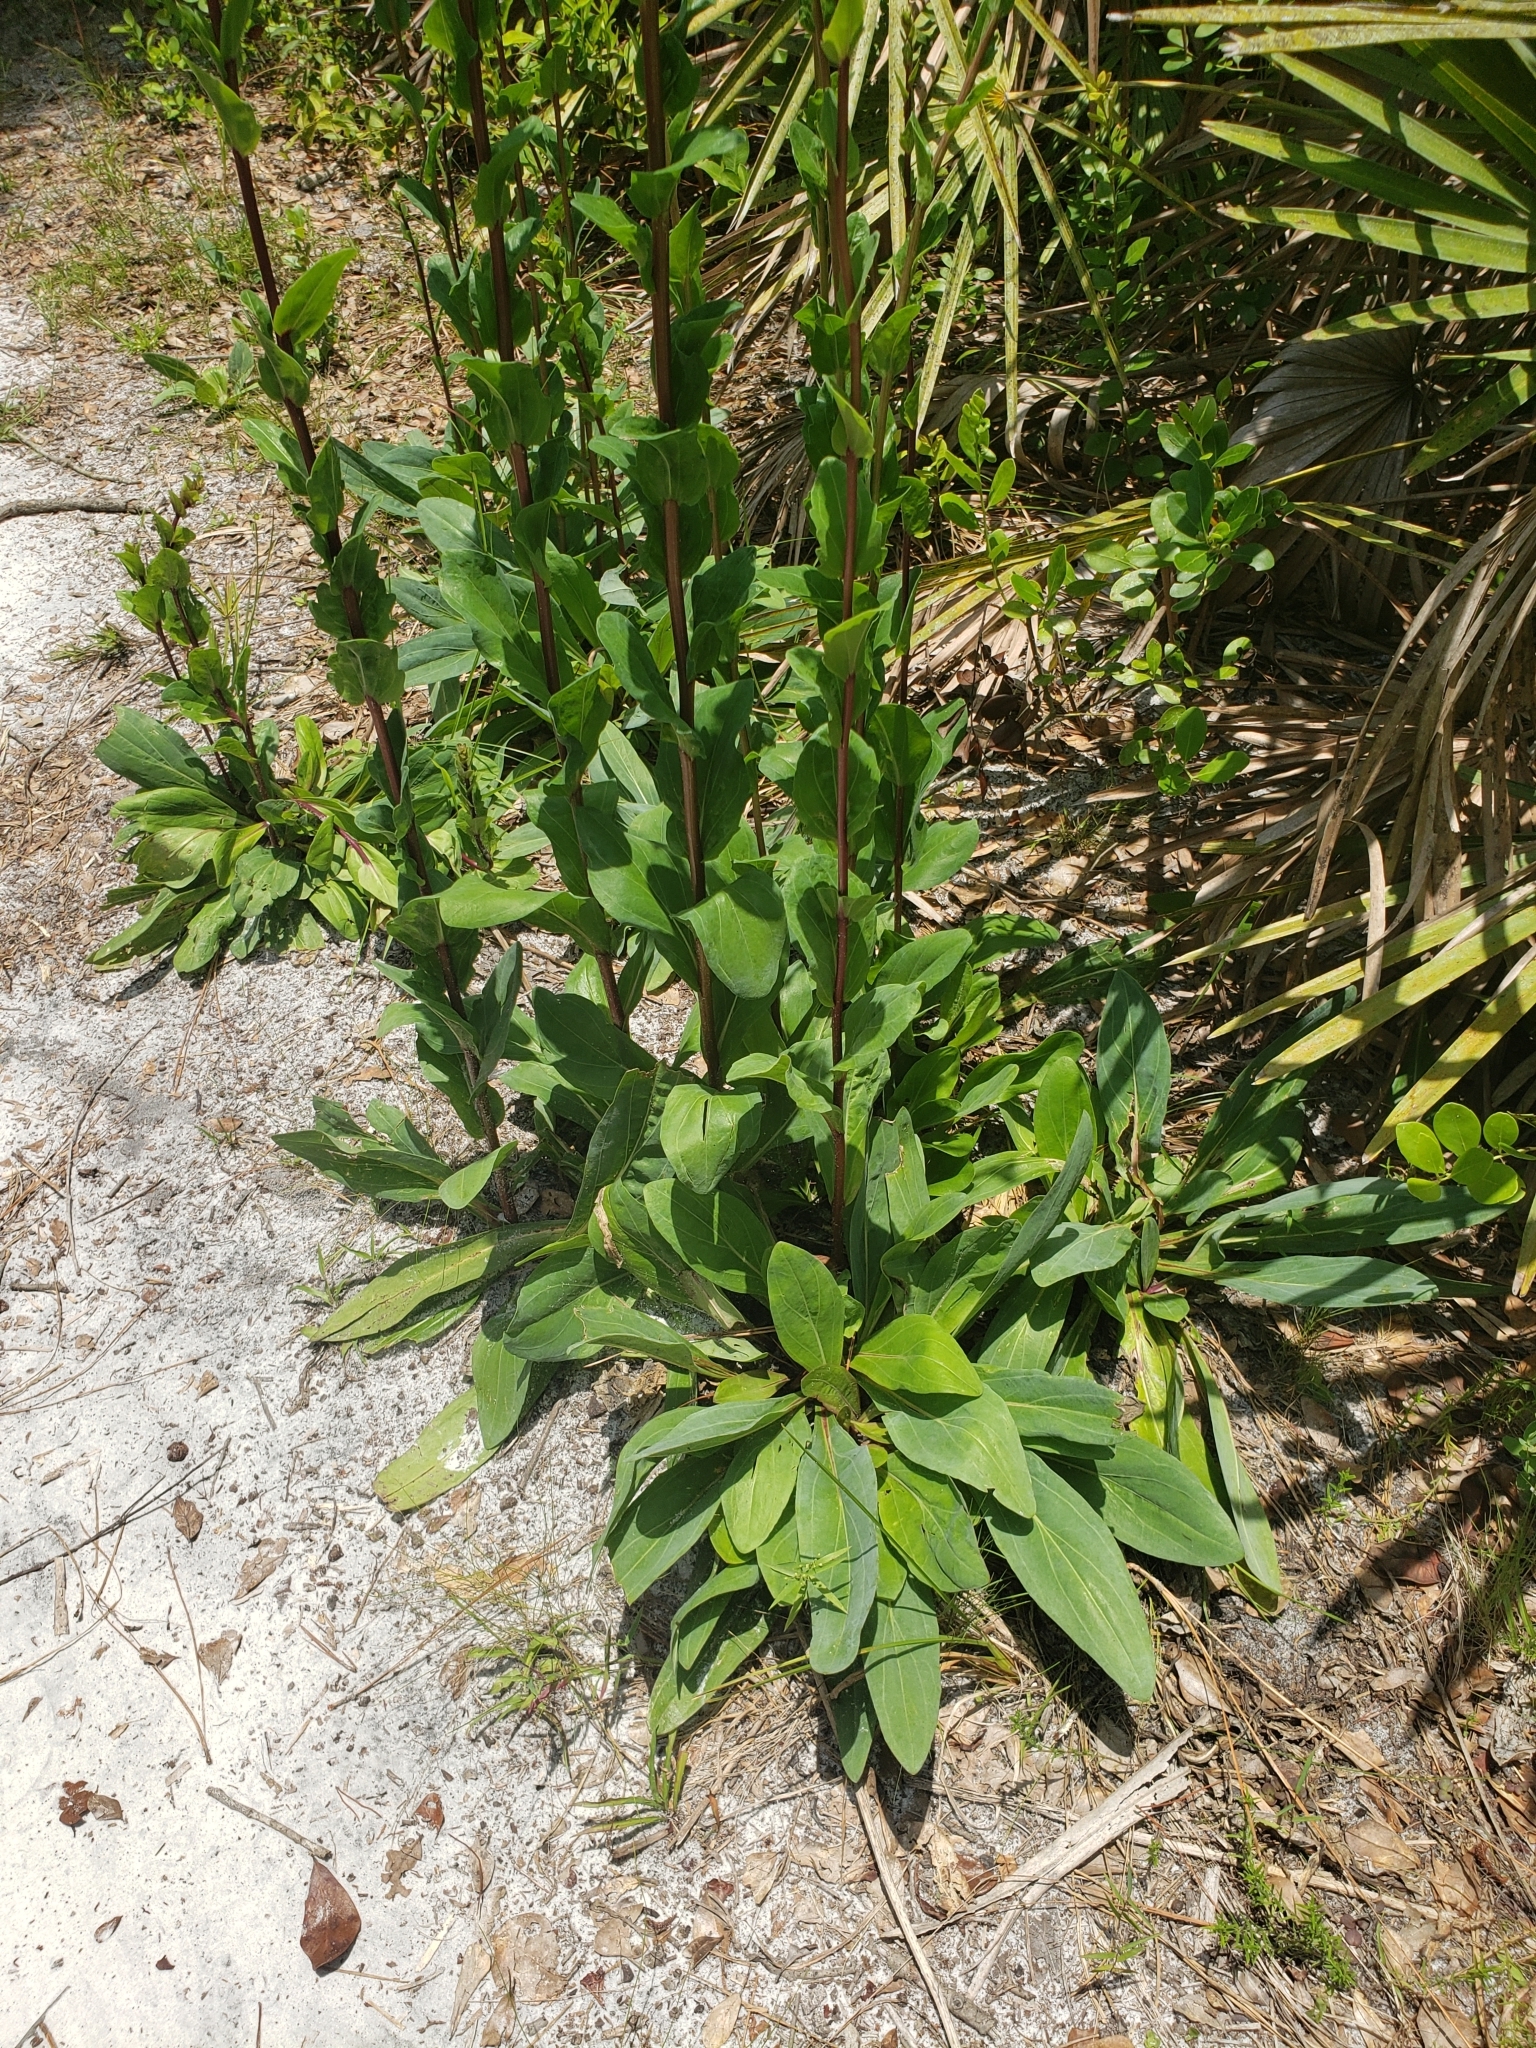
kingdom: Plantae
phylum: Tracheophyta
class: Magnoliopsida
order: Asterales
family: Asteraceae
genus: Carphephorus
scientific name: Carphephorus odoratissimus
